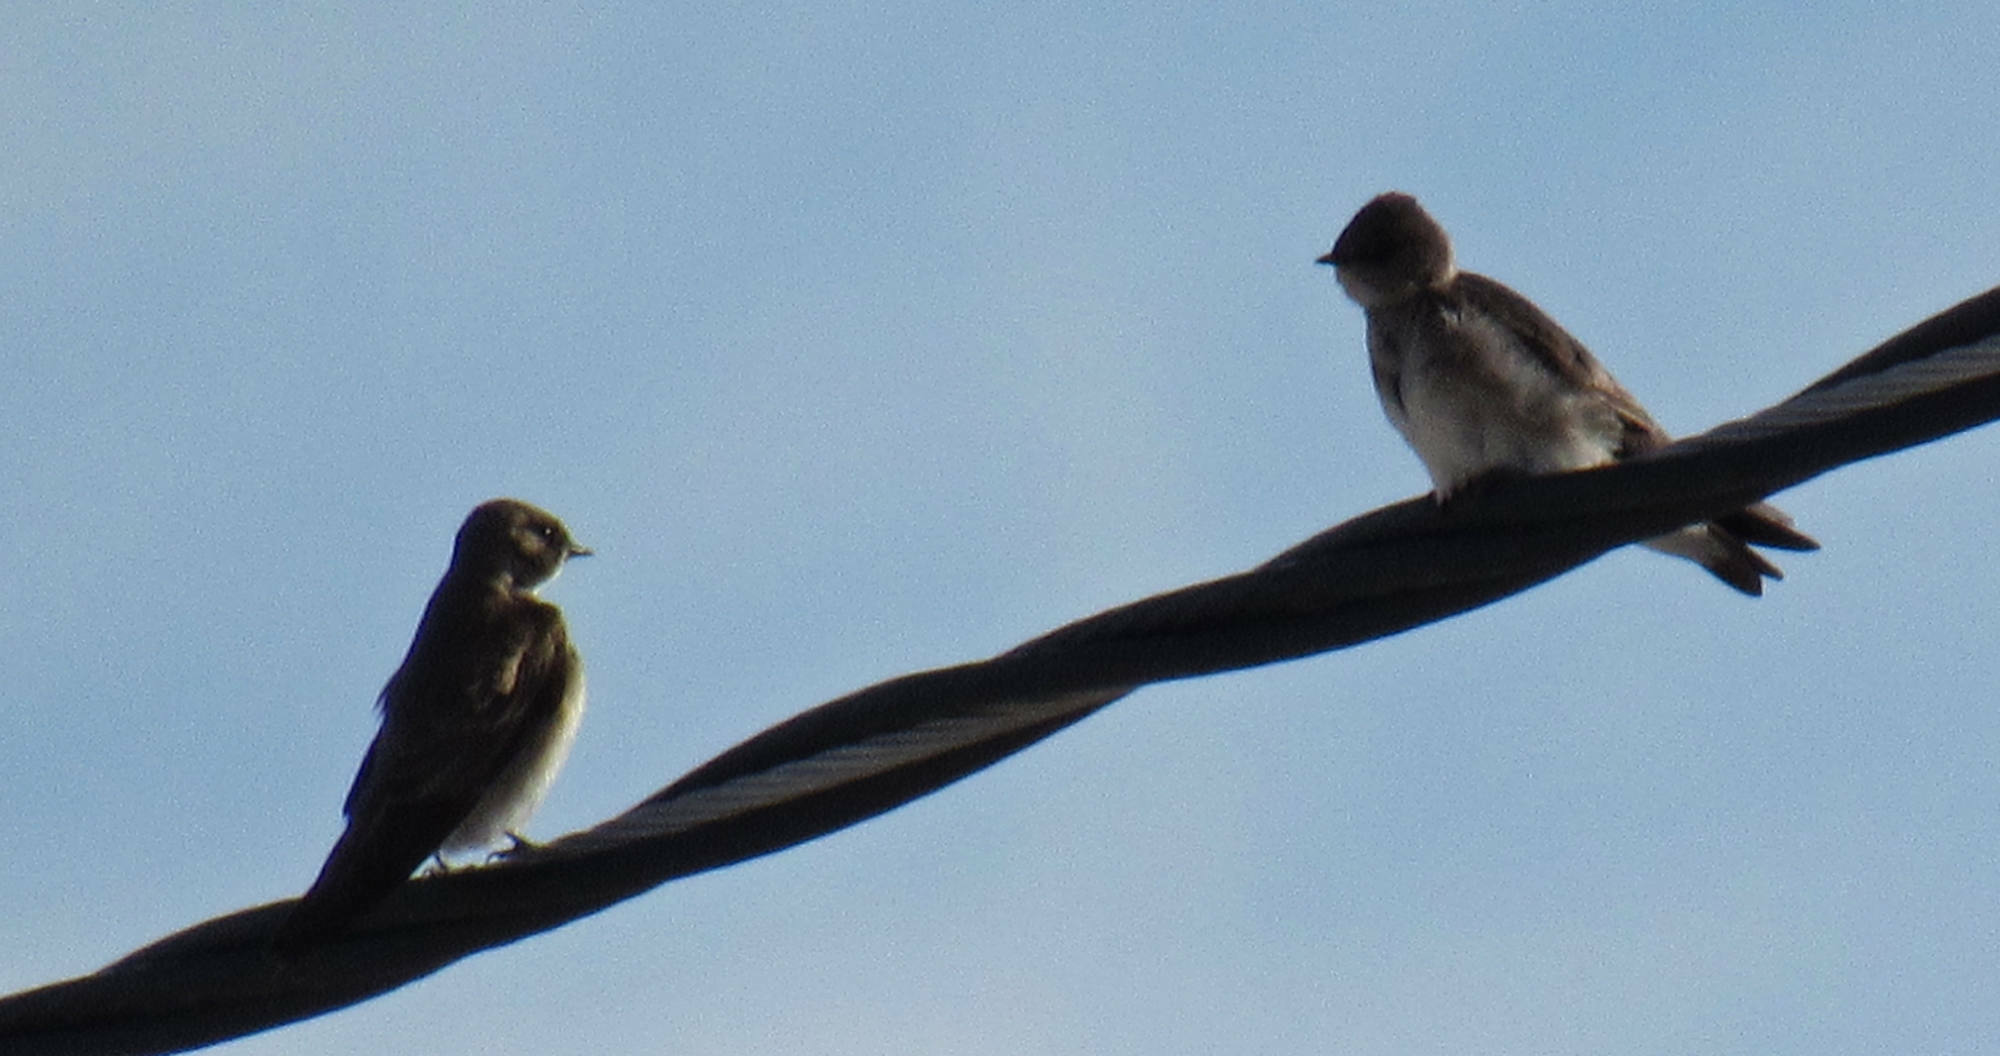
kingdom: Animalia
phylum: Chordata
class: Aves
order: Passeriformes
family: Hirundinidae
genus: Stelgidopteryx
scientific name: Stelgidopteryx serripennis
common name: Northern rough-winged swallow
